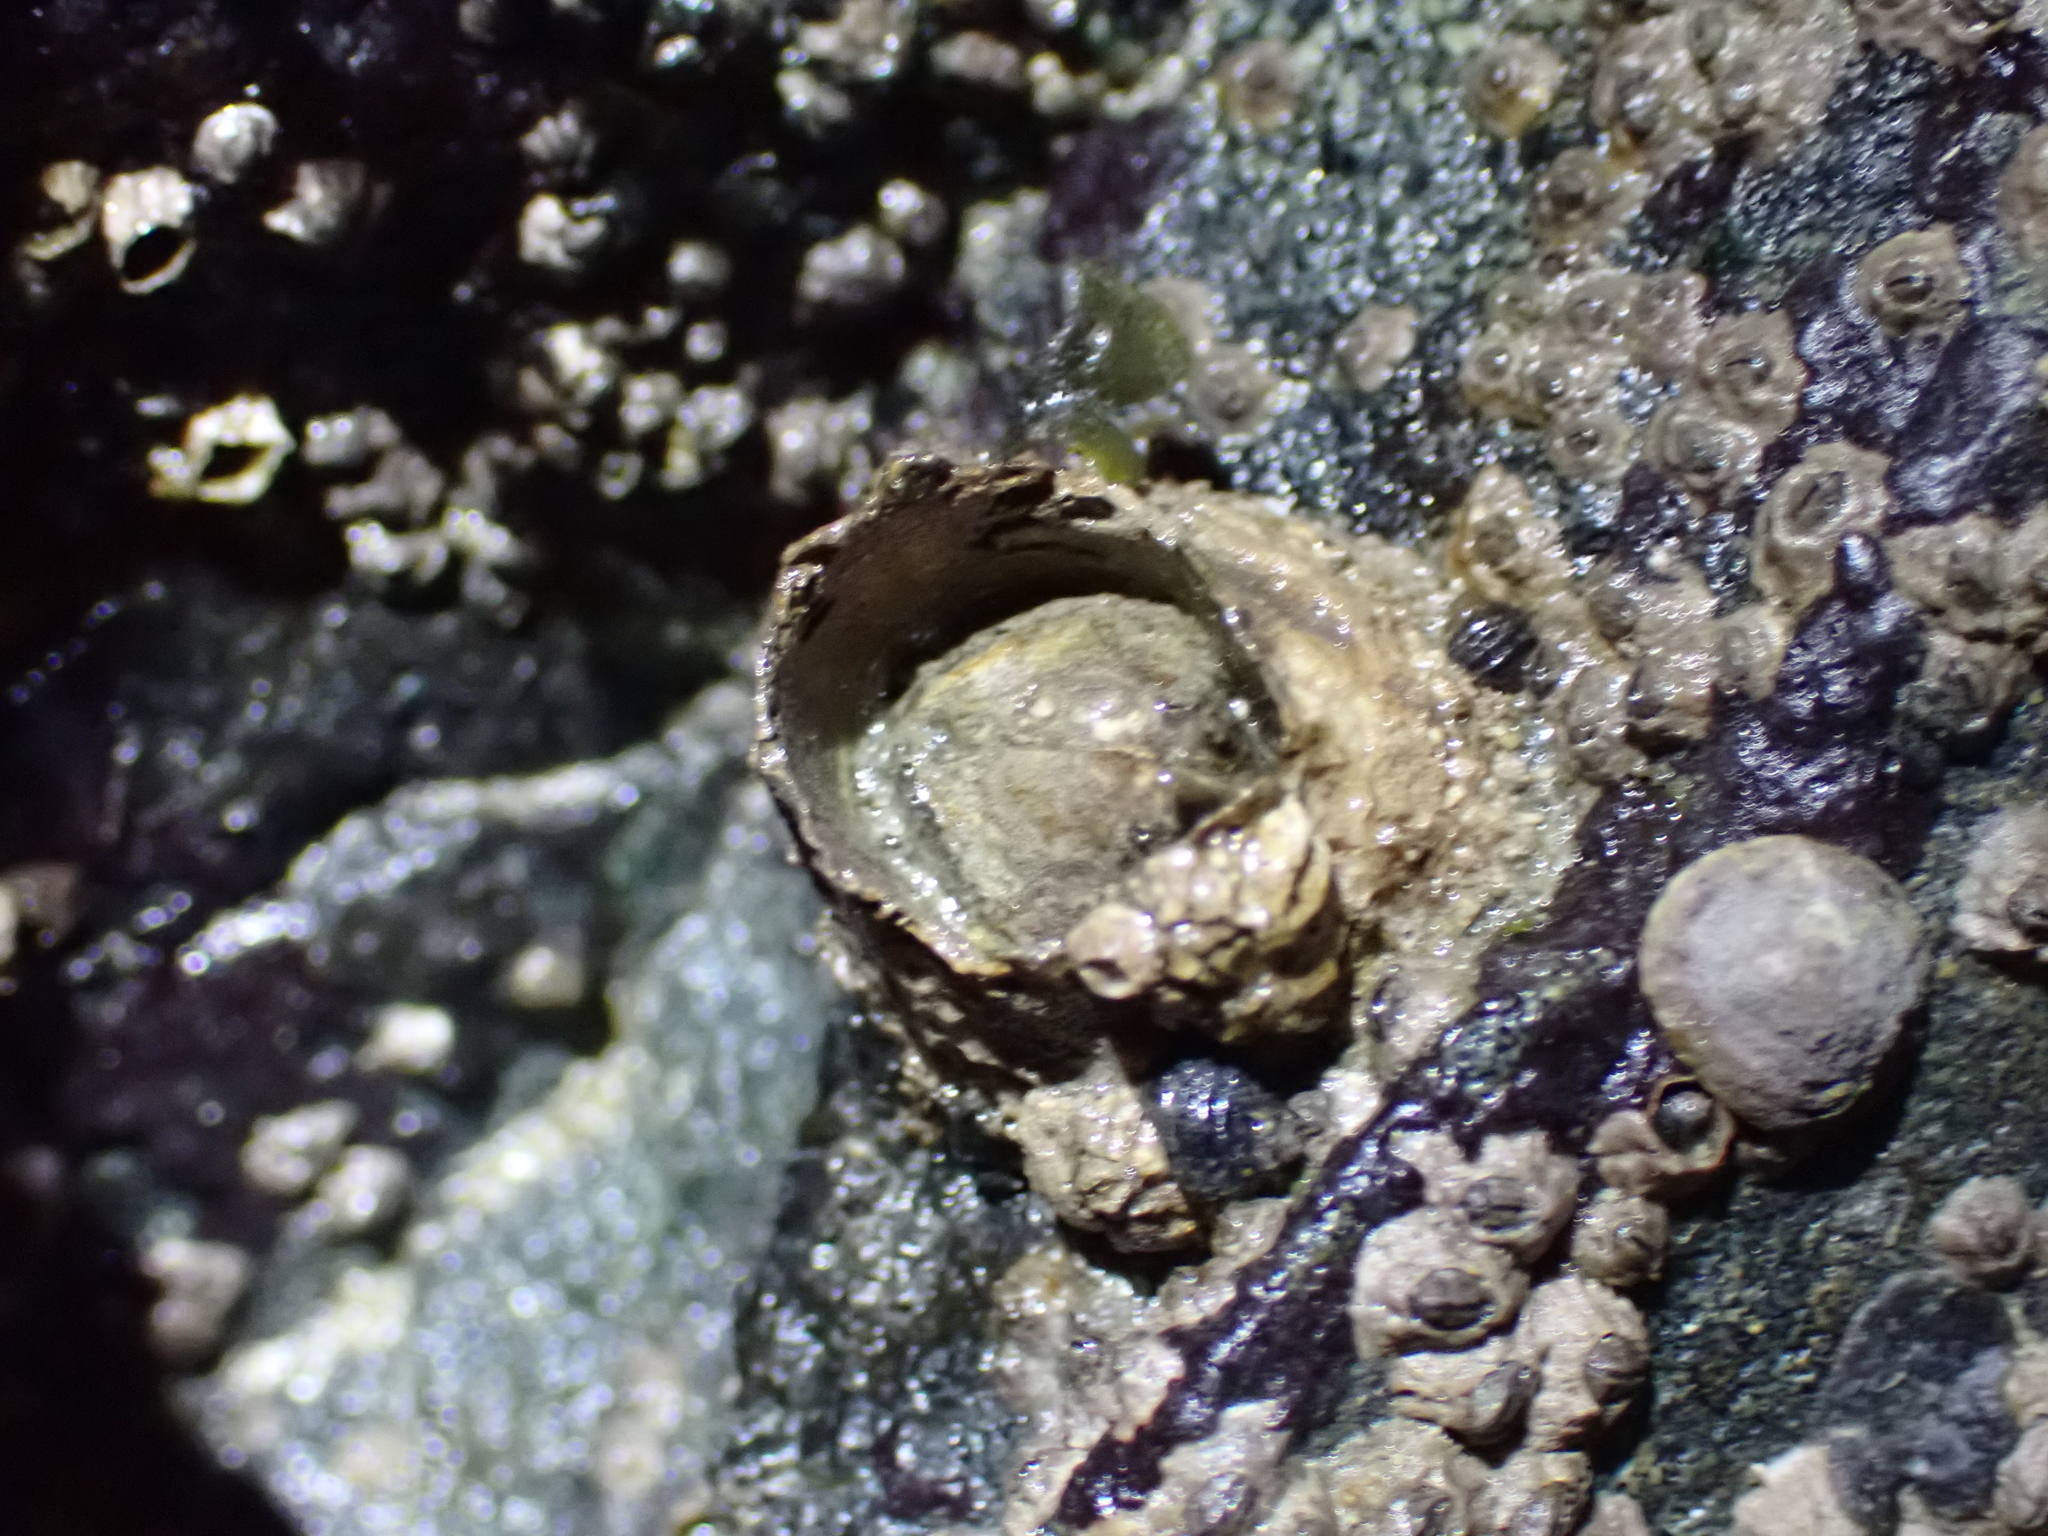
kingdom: Animalia
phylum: Arthropoda
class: Maxillopoda
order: Sessilia
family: Archaeobalanidae
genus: Semibalanus
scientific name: Semibalanus cariosus
